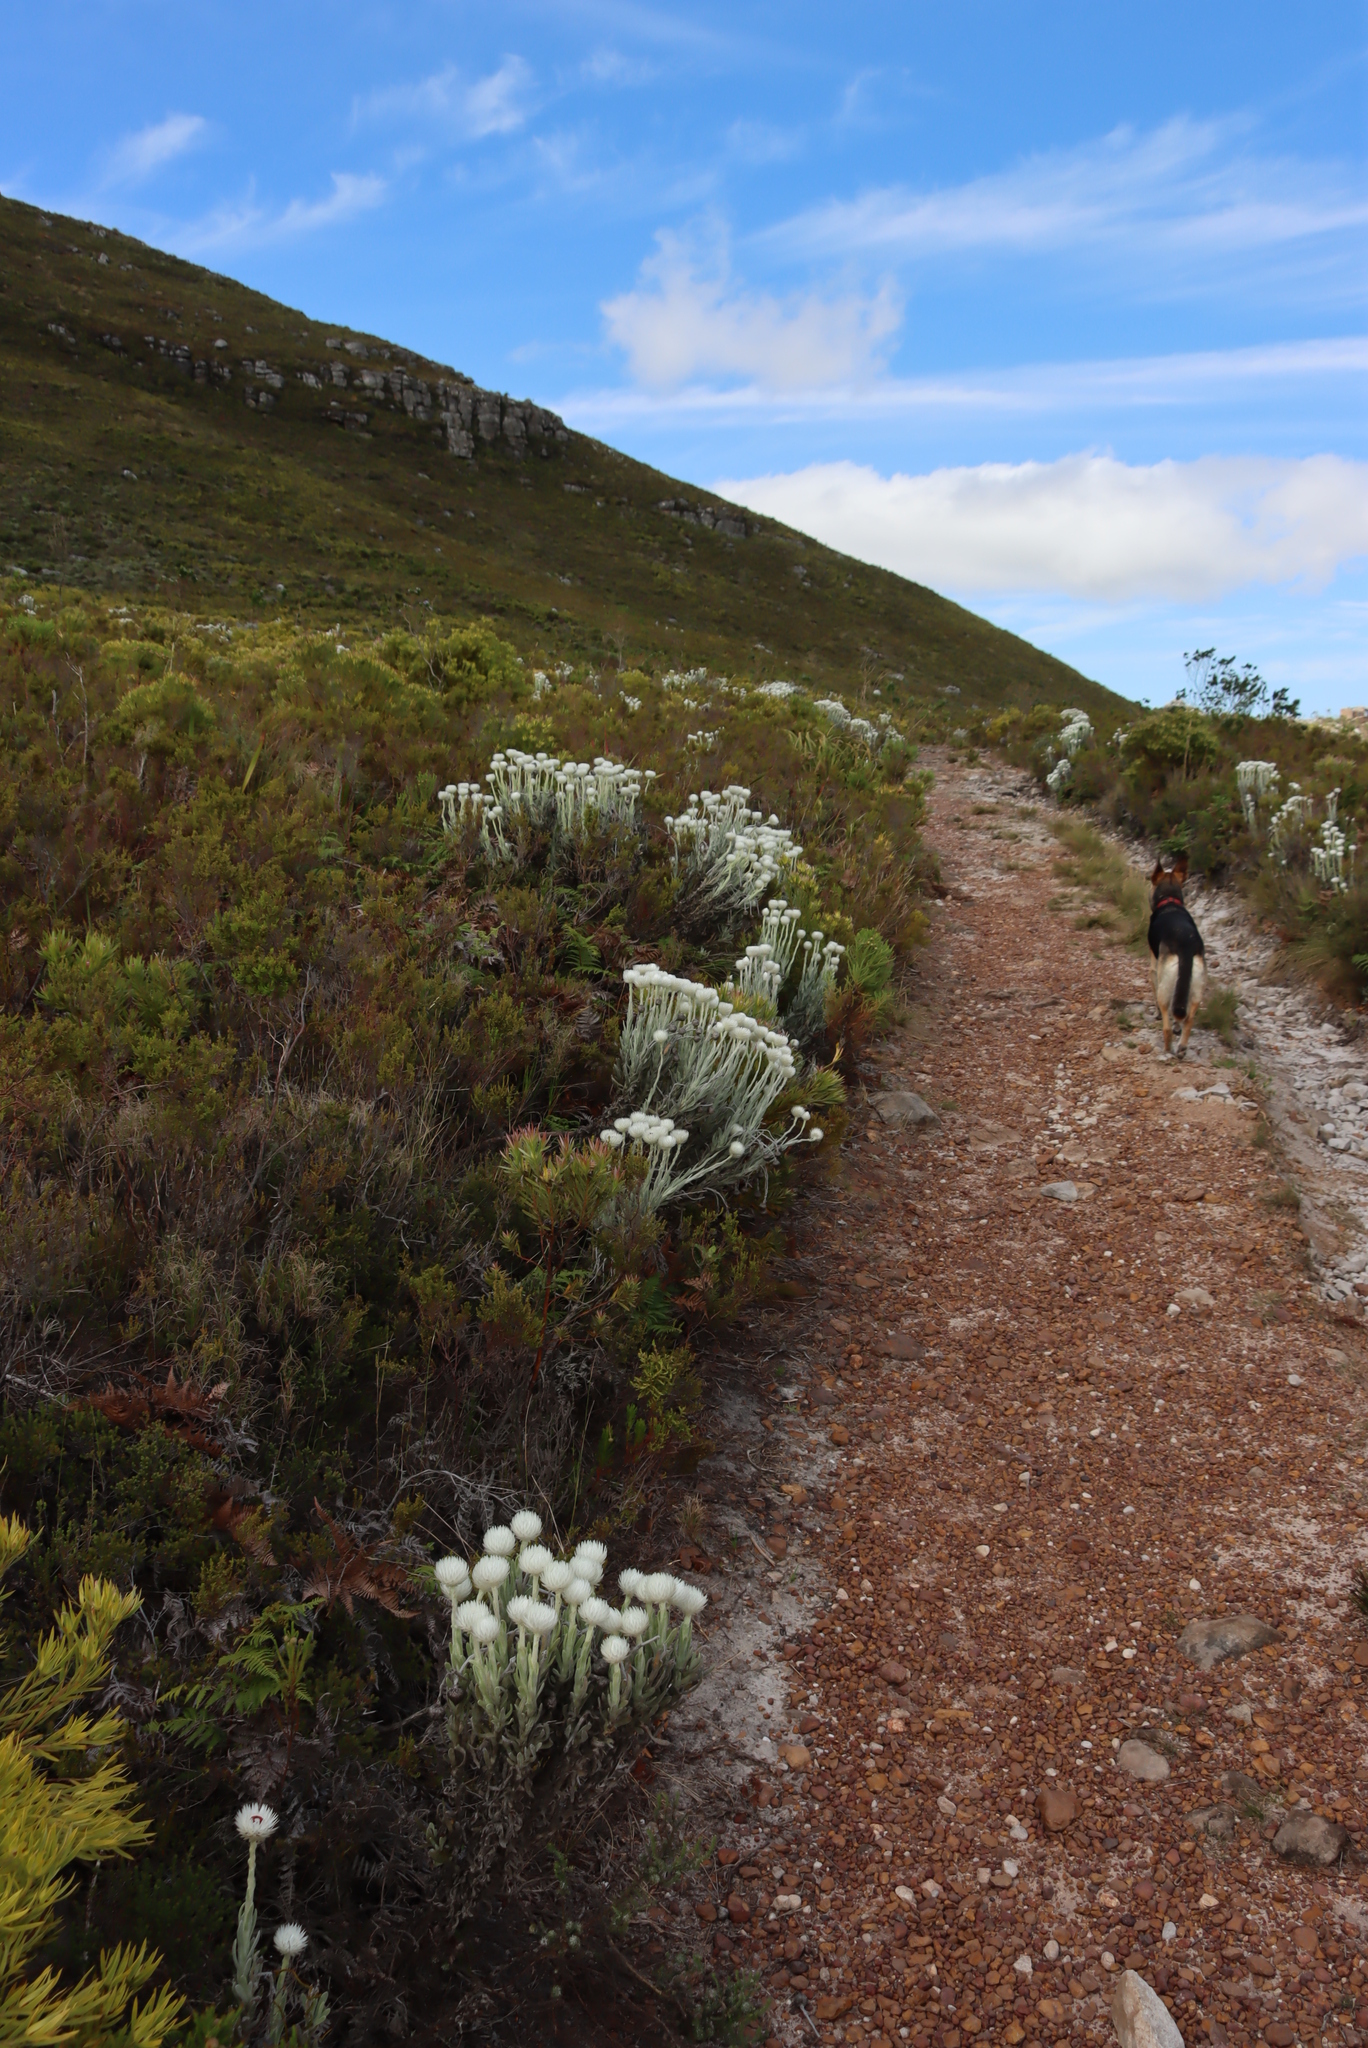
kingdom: Plantae
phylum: Tracheophyta
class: Magnoliopsida
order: Asterales
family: Asteraceae
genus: Syncarpha
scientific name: Syncarpha vestita
